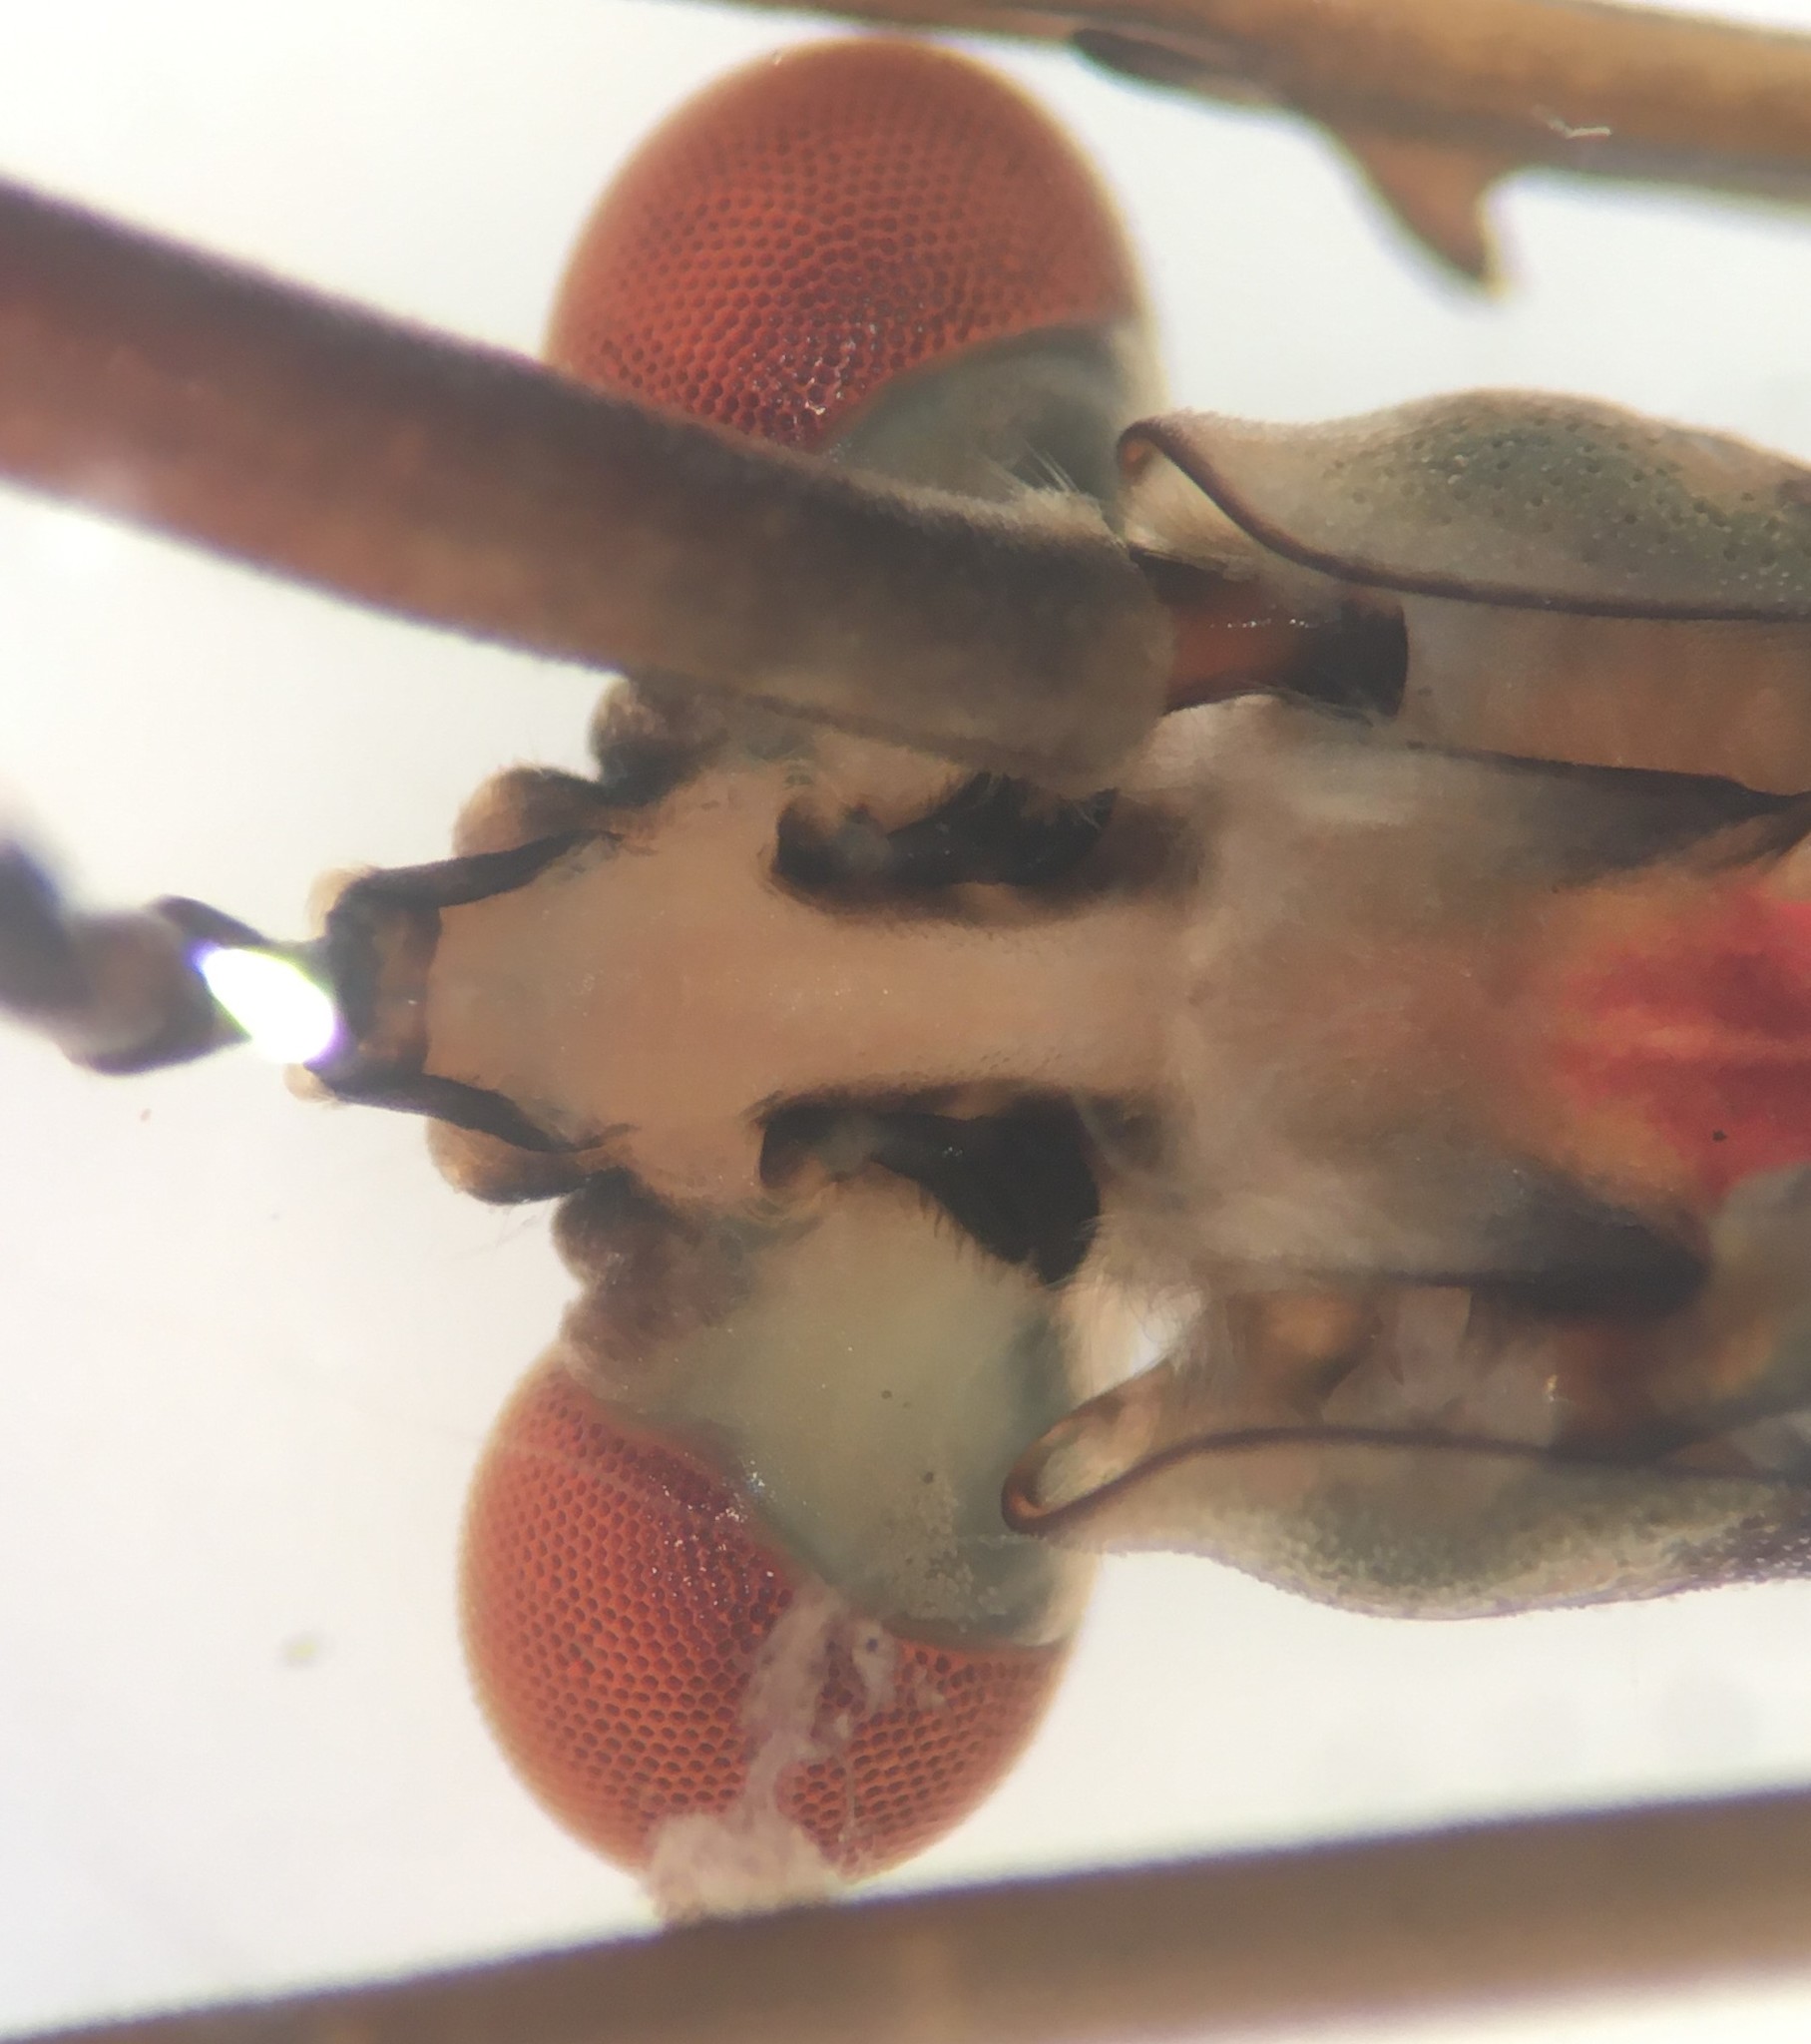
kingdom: Animalia
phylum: Arthropoda
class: Insecta
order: Hemiptera
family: Nepidae
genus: Ranatra
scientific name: Ranatra drakei
